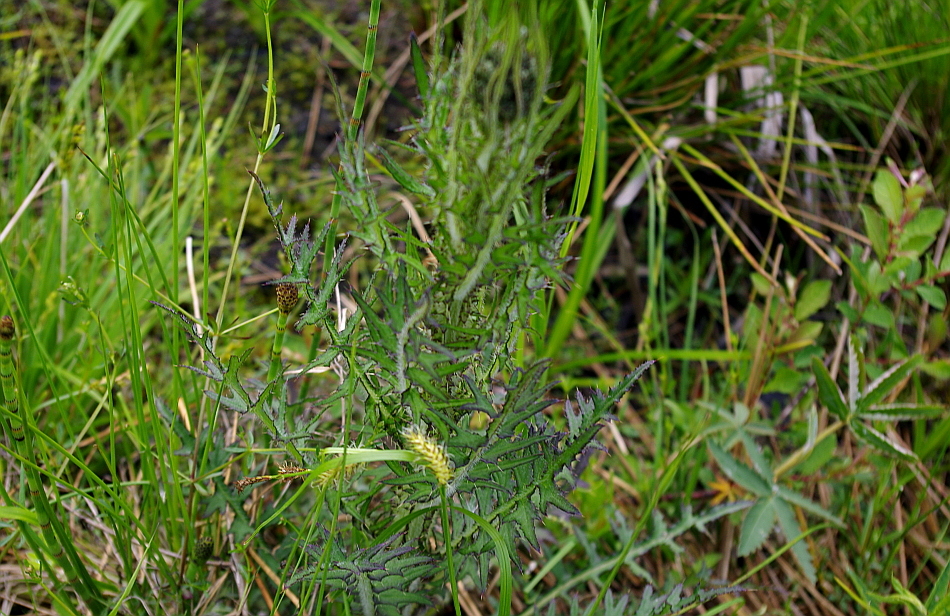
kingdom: Plantae
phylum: Tracheophyta
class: Magnoliopsida
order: Asterales
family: Asteraceae
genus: Cirsium
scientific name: Cirsium palustre
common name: Marsh thistle
